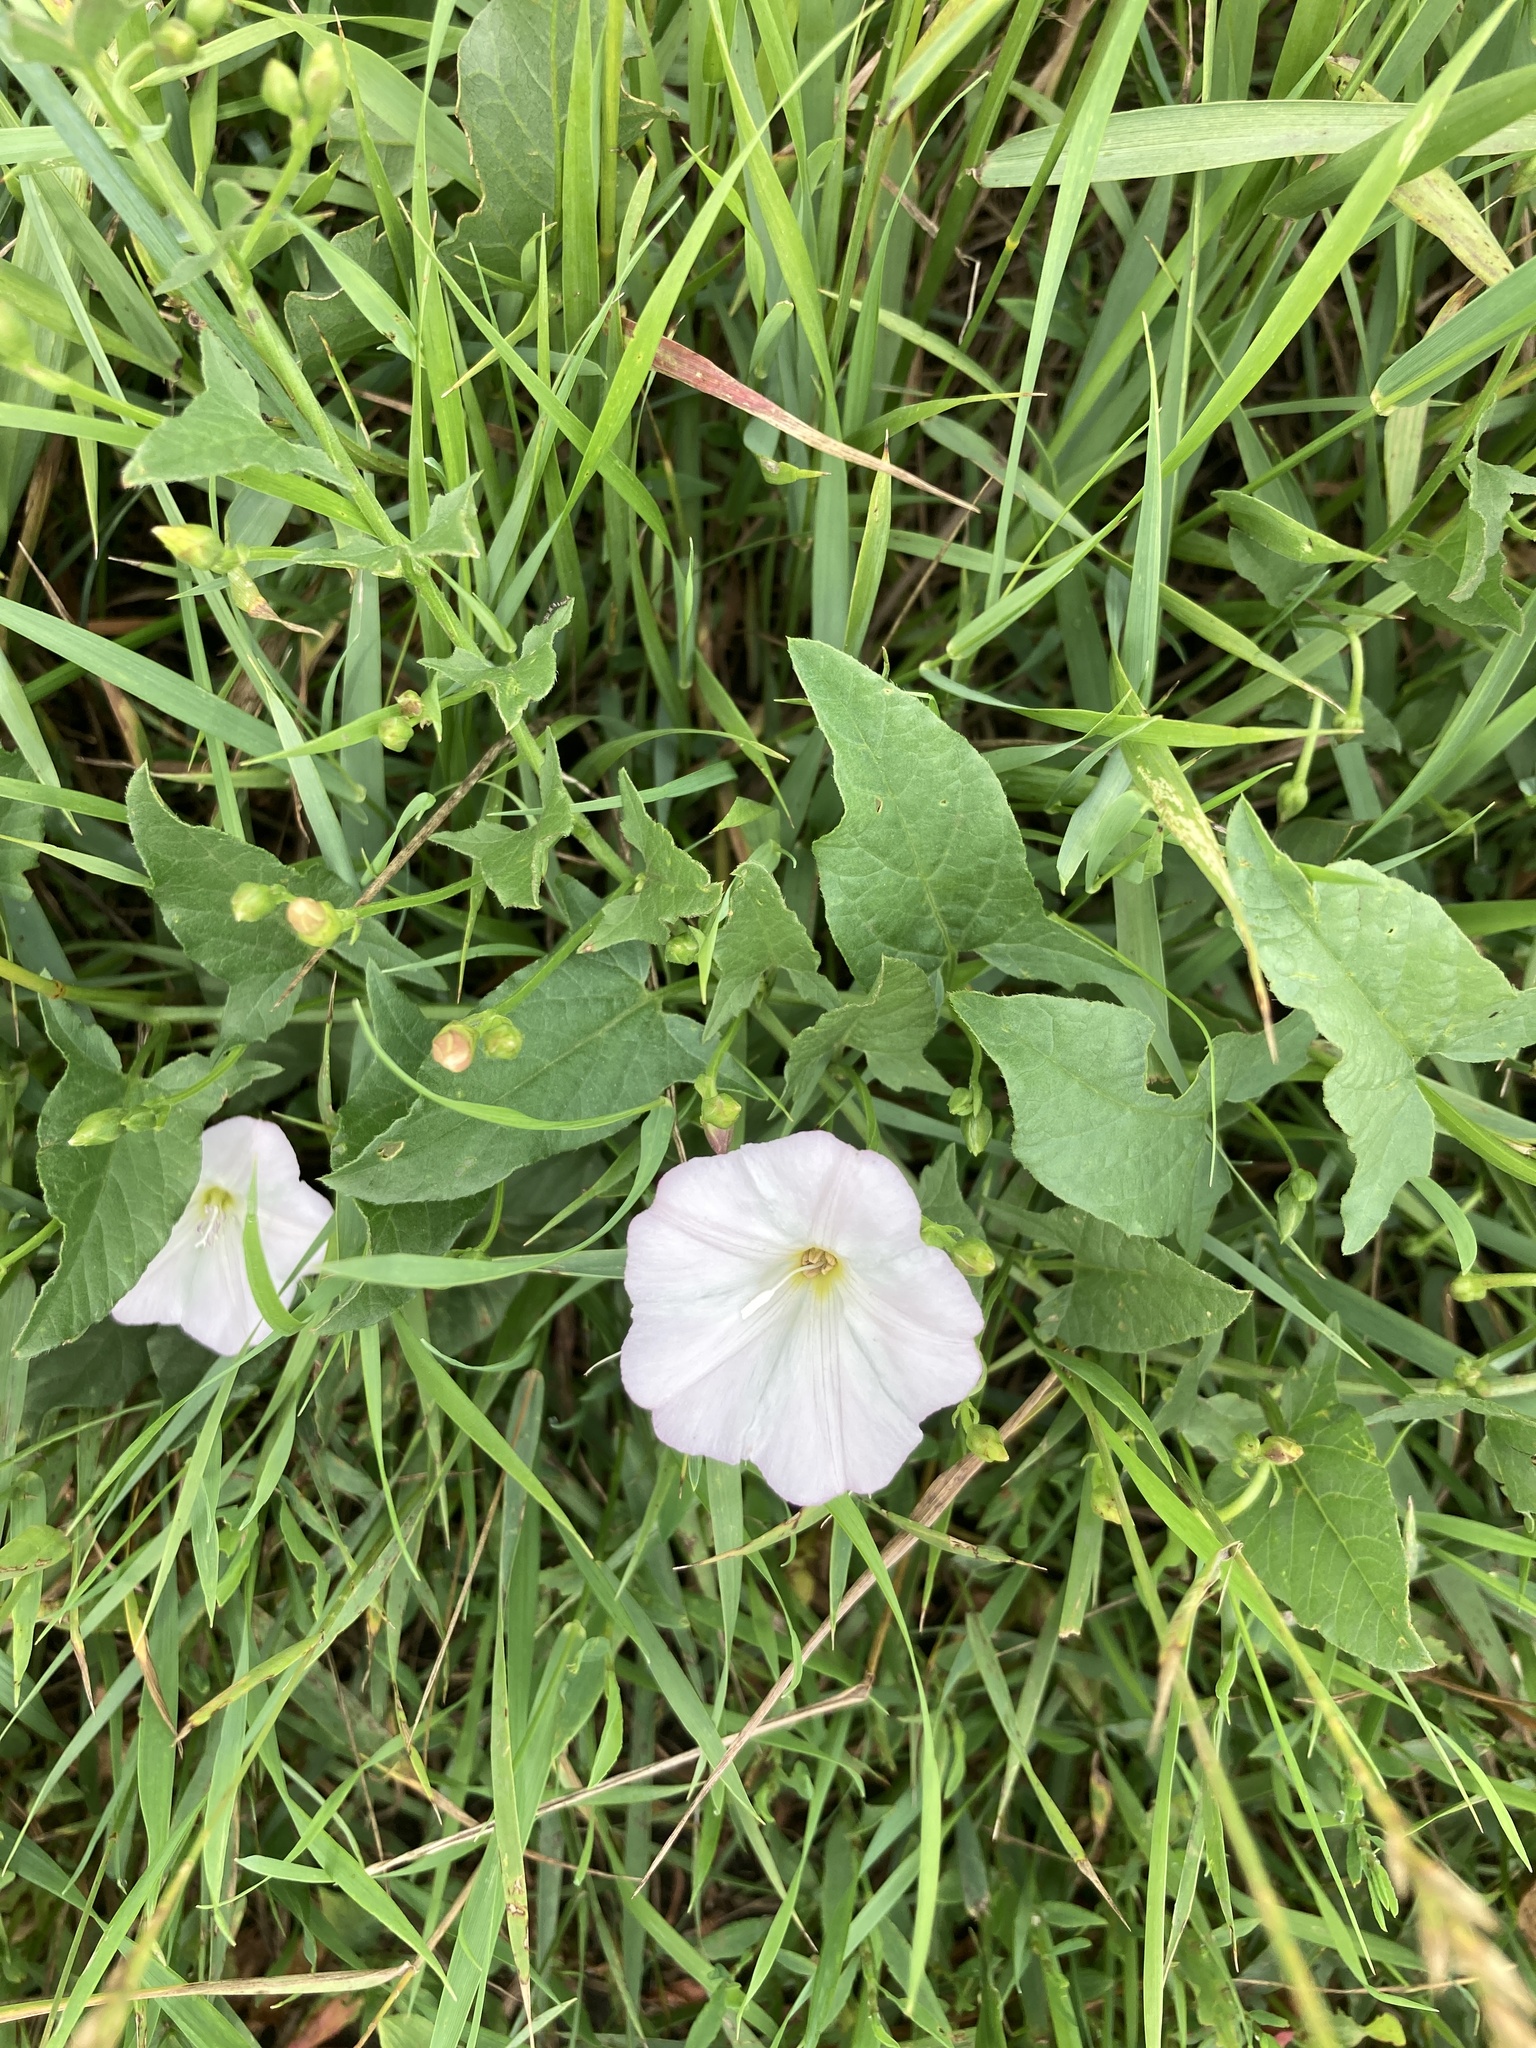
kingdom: Plantae
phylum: Tracheophyta
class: Magnoliopsida
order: Solanales
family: Convolvulaceae
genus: Convolvulus
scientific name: Convolvulus arvensis
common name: Field bindweed
